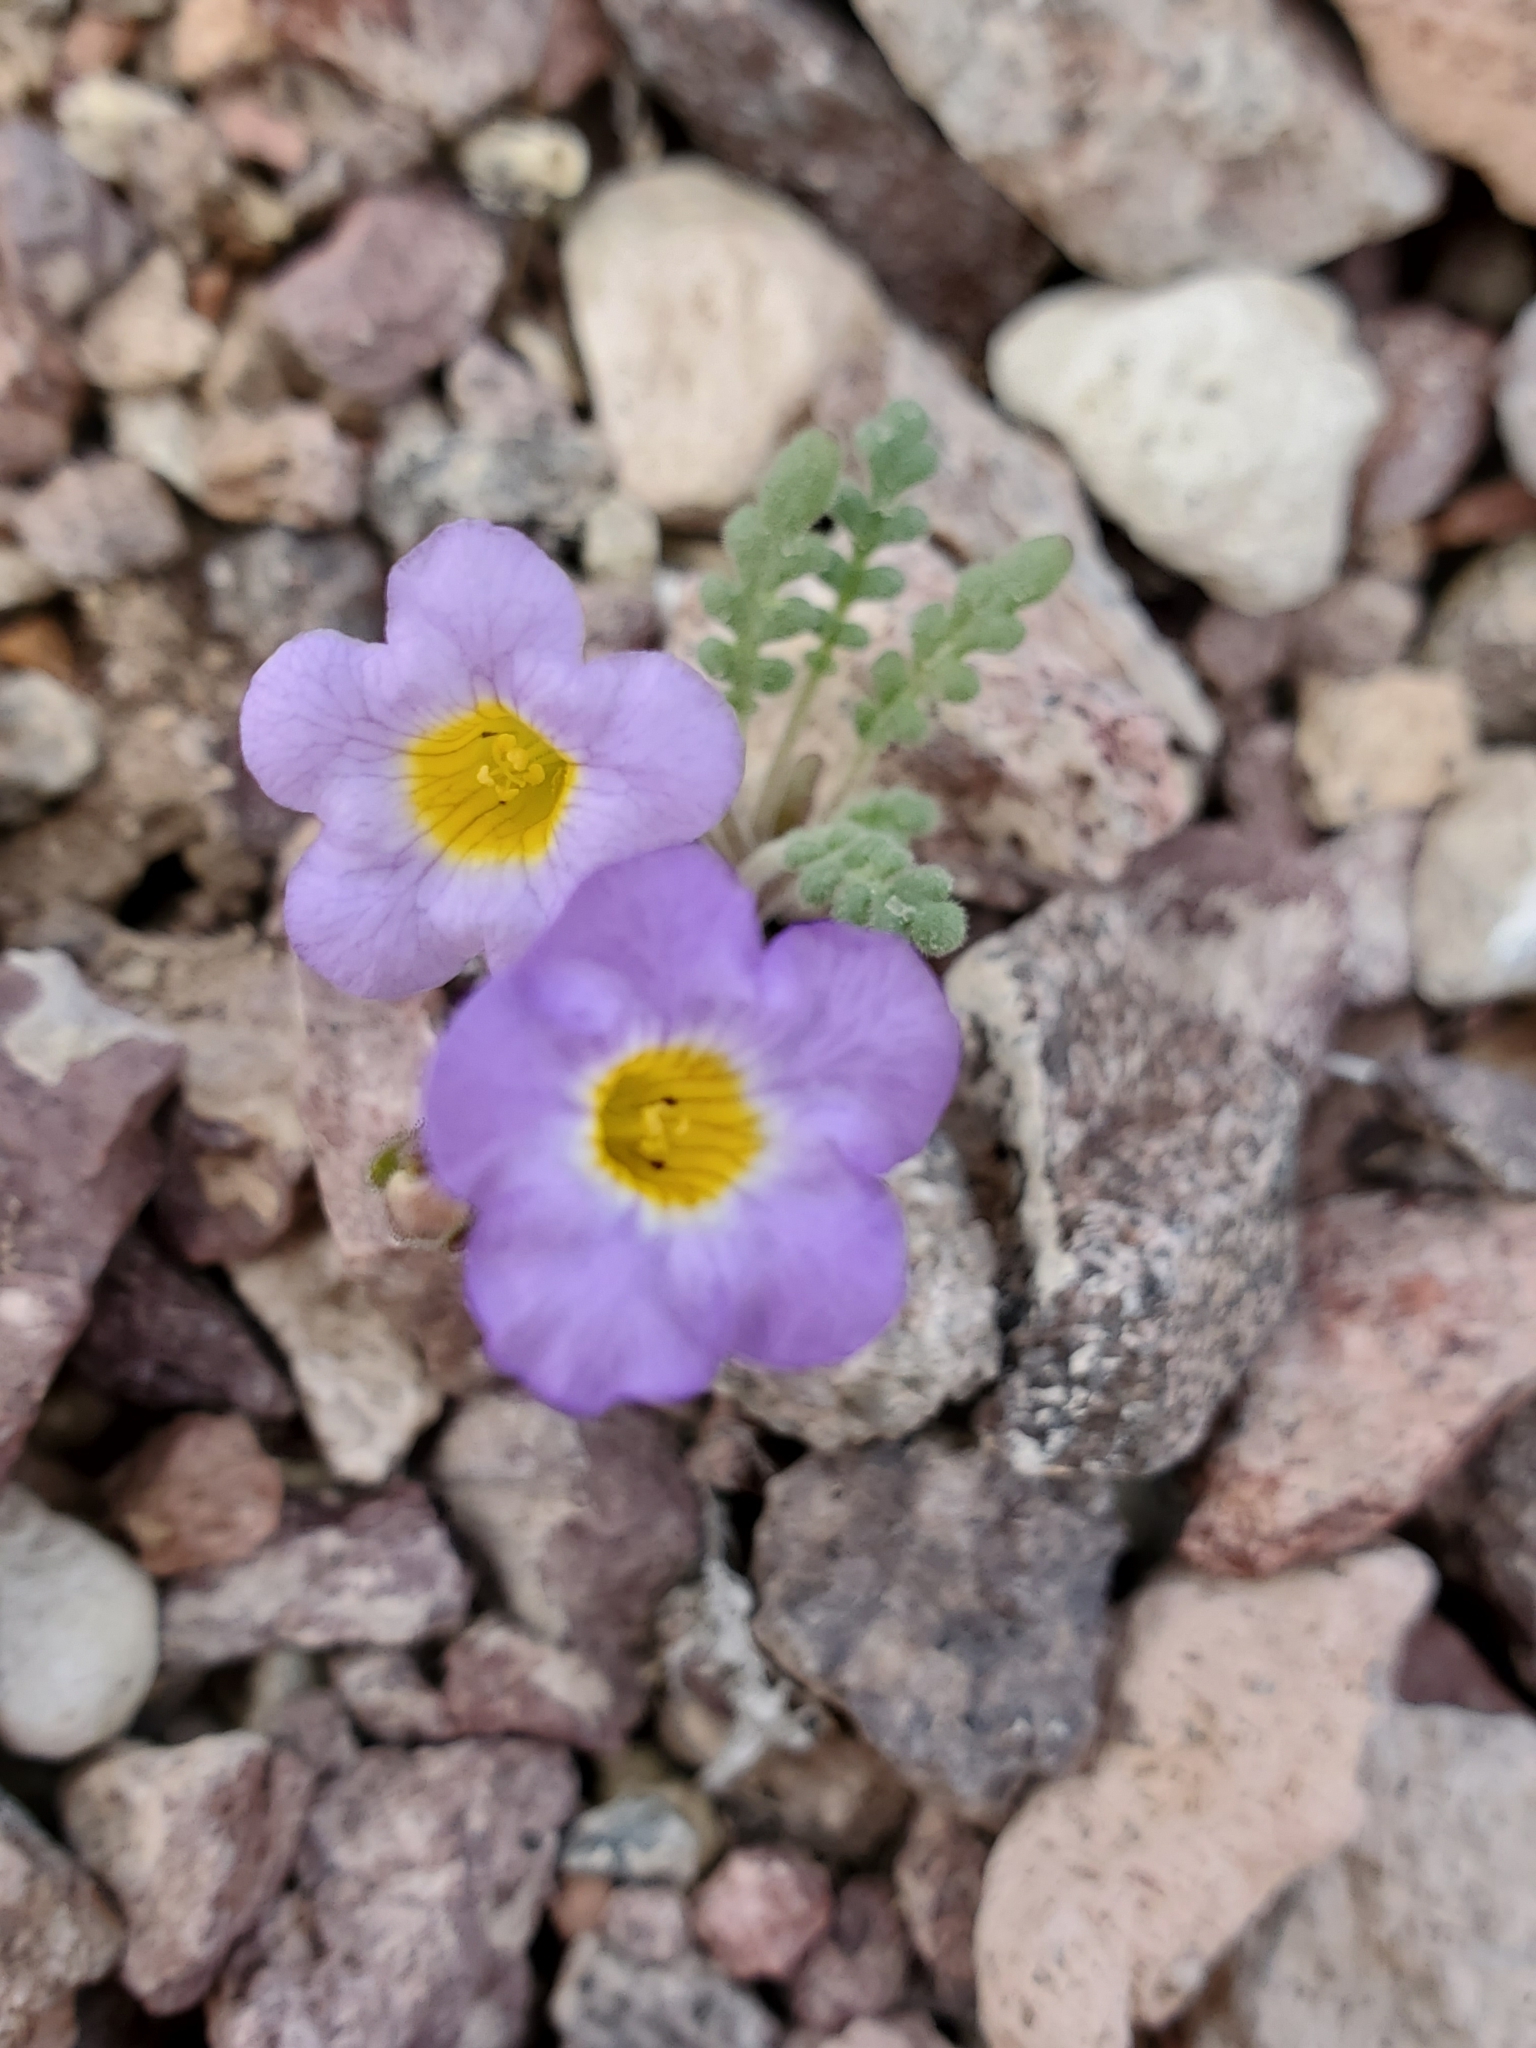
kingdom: Plantae
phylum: Tracheophyta
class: Magnoliopsida
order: Boraginales
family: Hydrophyllaceae
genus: Phacelia
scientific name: Phacelia fremontii
